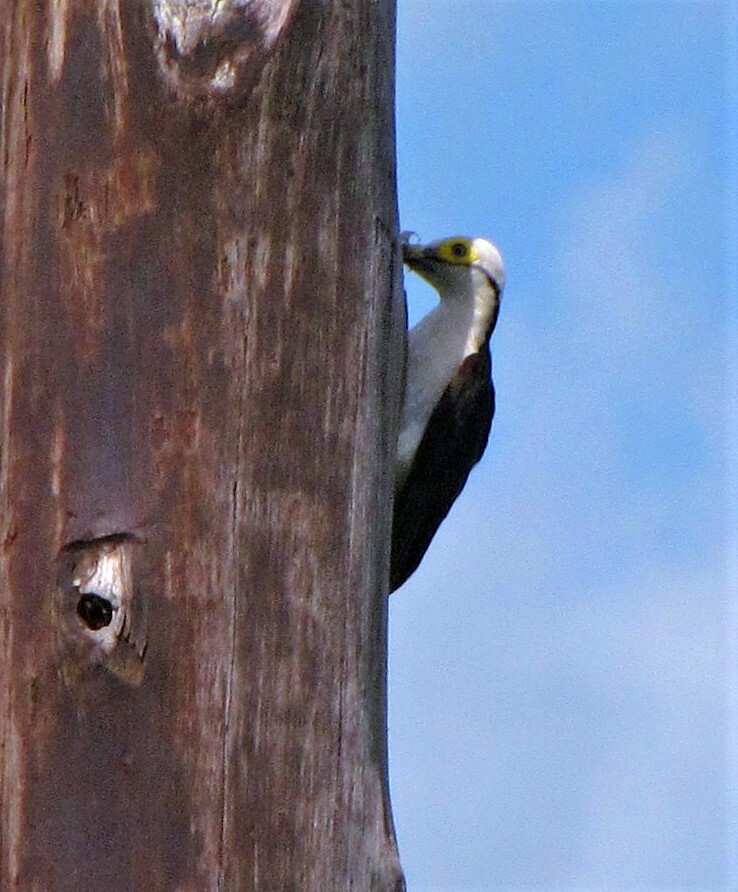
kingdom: Animalia
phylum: Chordata
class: Aves
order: Piciformes
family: Picidae
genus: Melanerpes
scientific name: Melanerpes candidus
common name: White woodpecker
